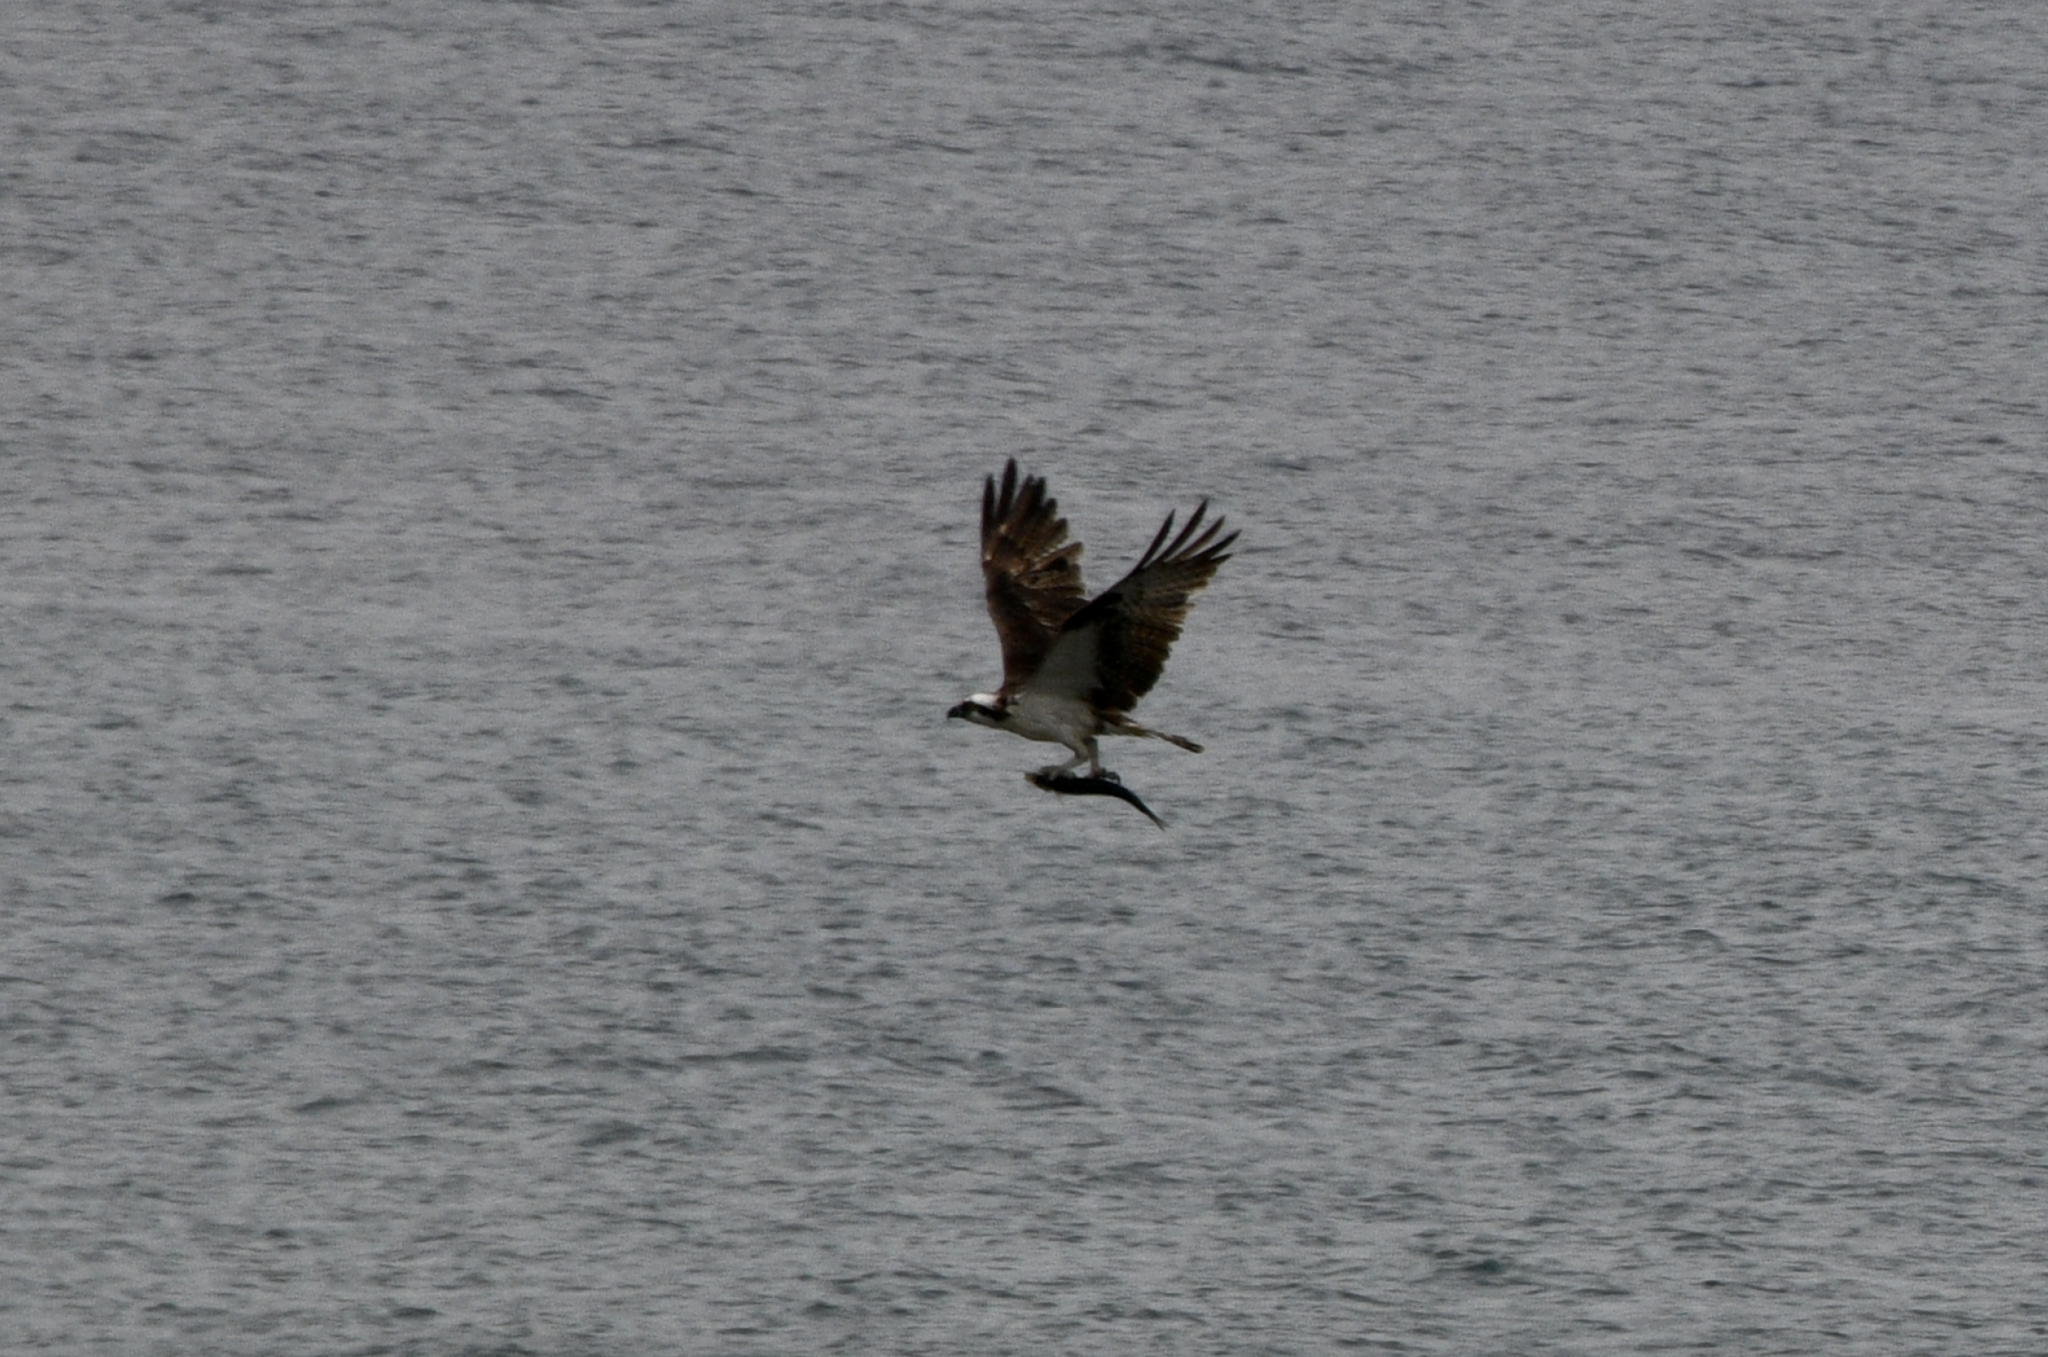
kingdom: Animalia
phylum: Chordata
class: Aves
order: Accipitriformes
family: Pandionidae
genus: Pandion
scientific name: Pandion haliaetus
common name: Osprey
